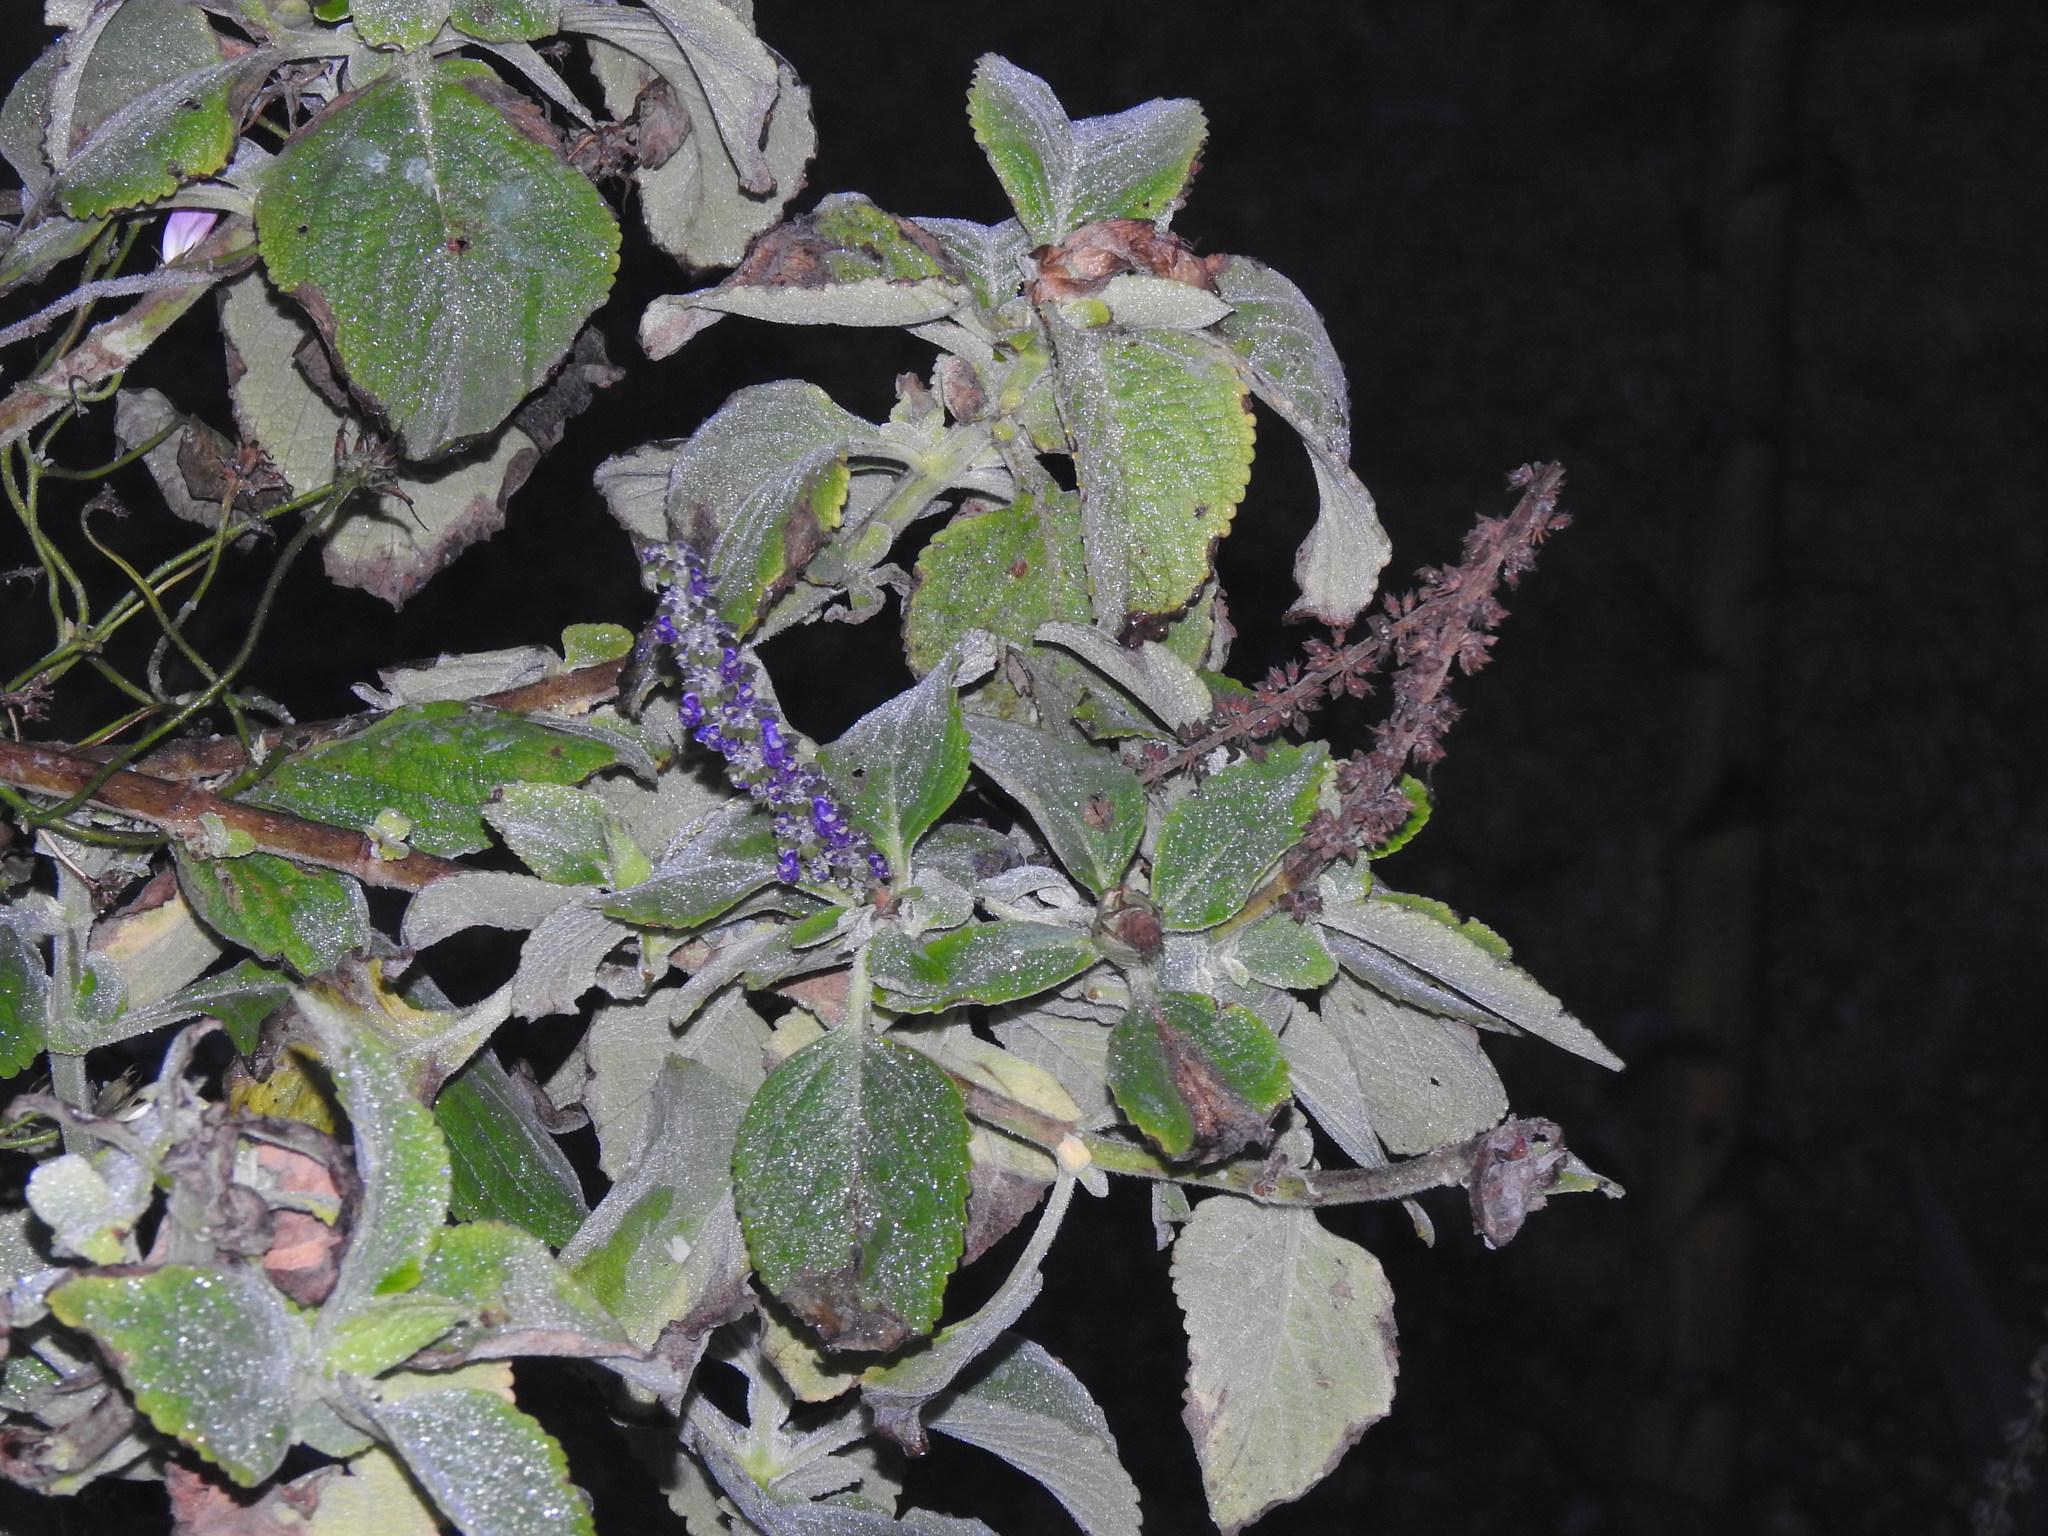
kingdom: Plantae
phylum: Tracheophyta
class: Magnoliopsida
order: Lamiales
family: Lamiaceae
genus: Coleus
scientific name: Coleus barbatus
